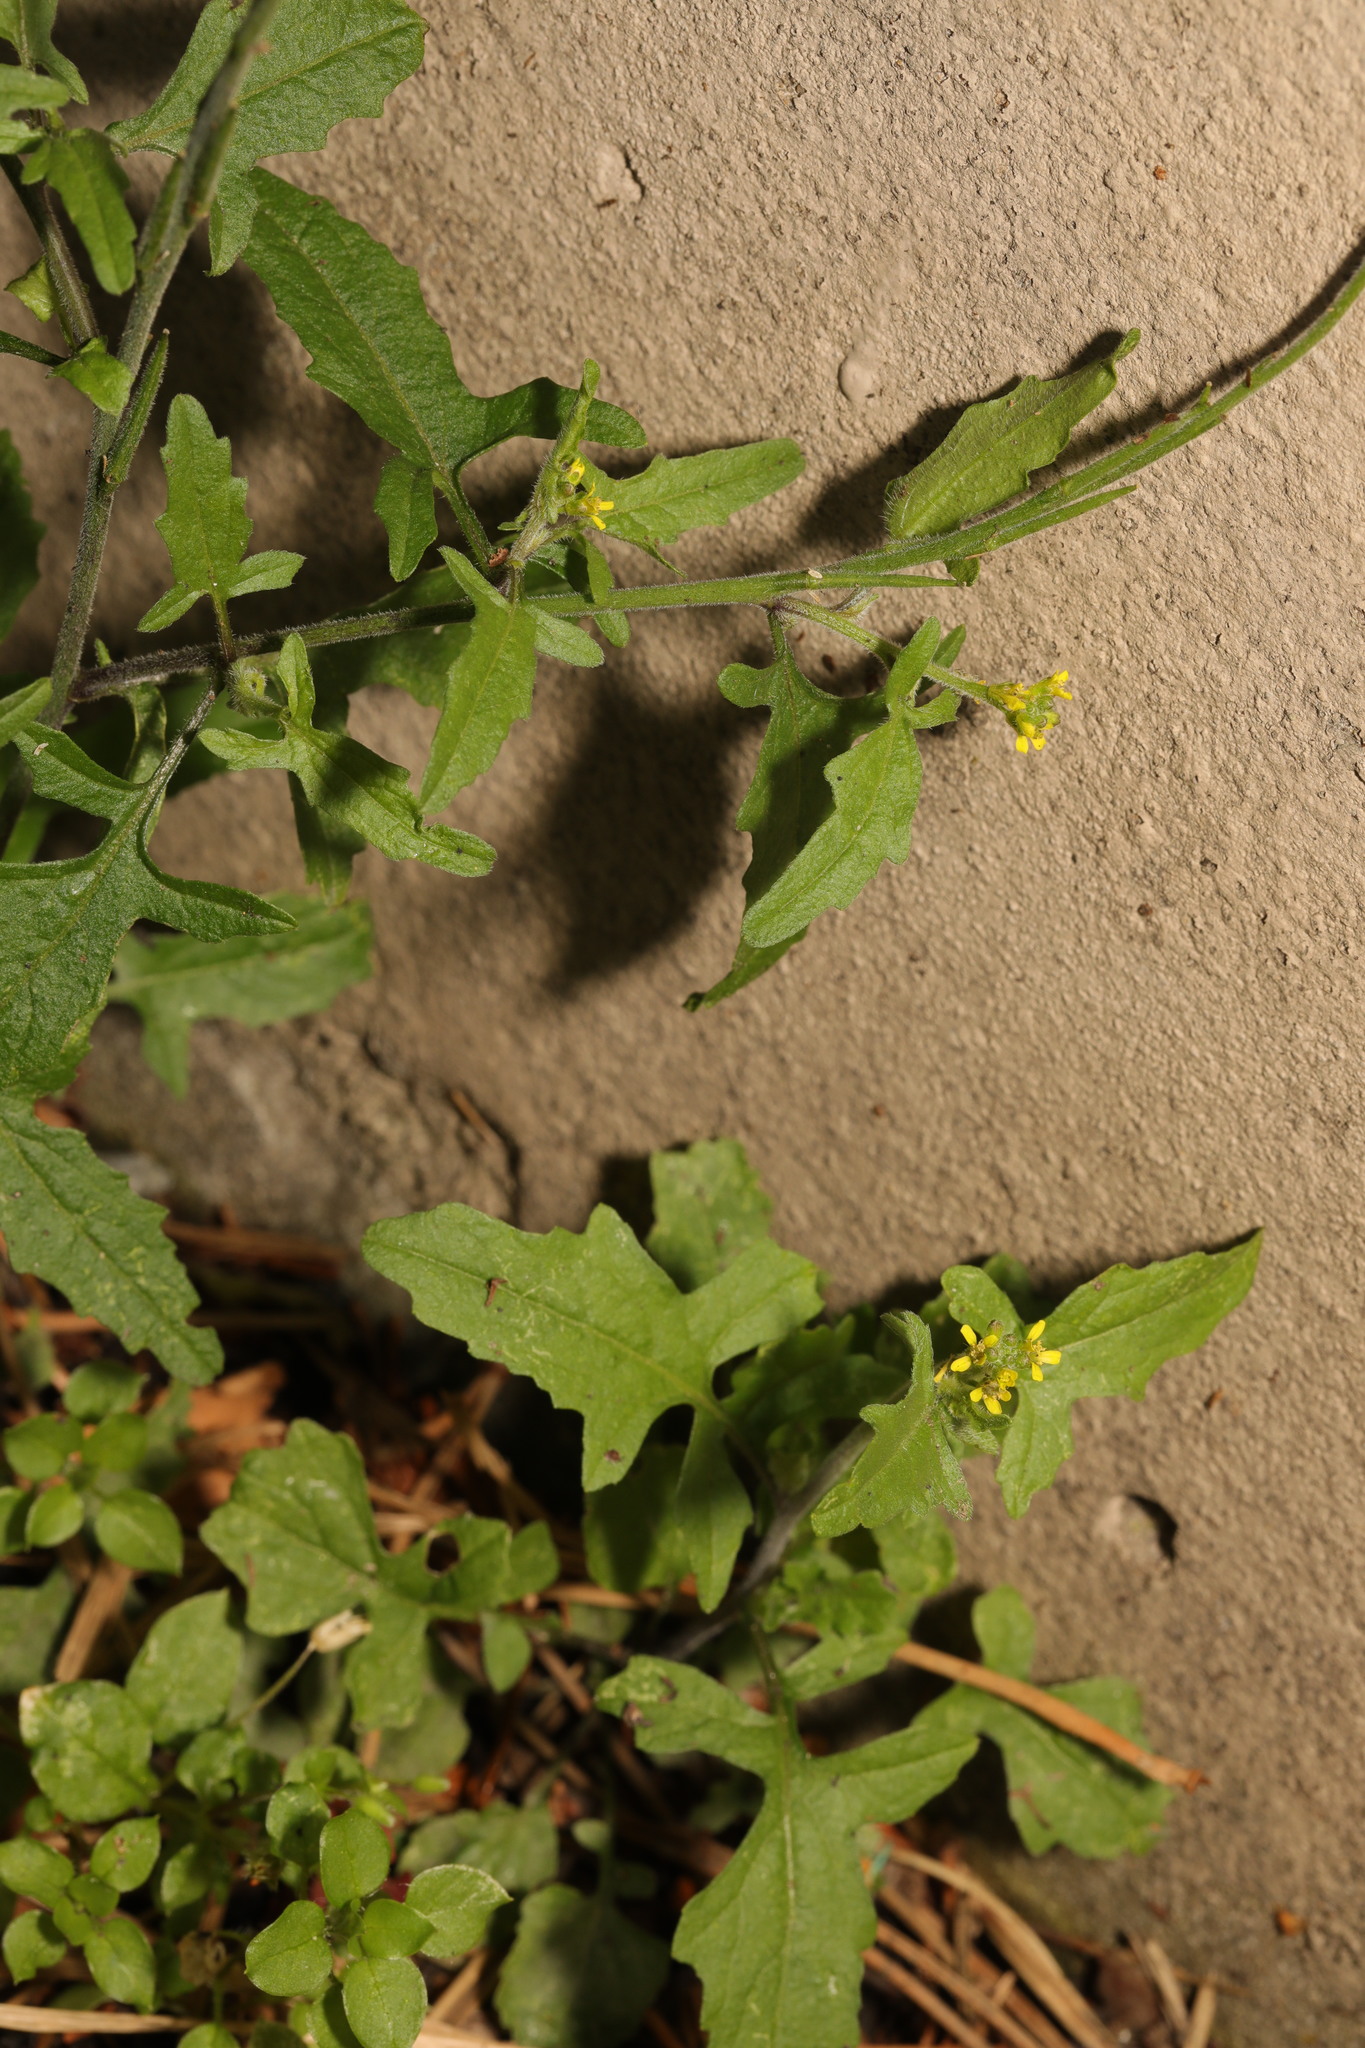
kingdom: Plantae
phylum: Tracheophyta
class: Magnoliopsida
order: Brassicales
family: Brassicaceae
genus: Sisymbrium
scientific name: Sisymbrium officinale
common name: Hedge mustard
